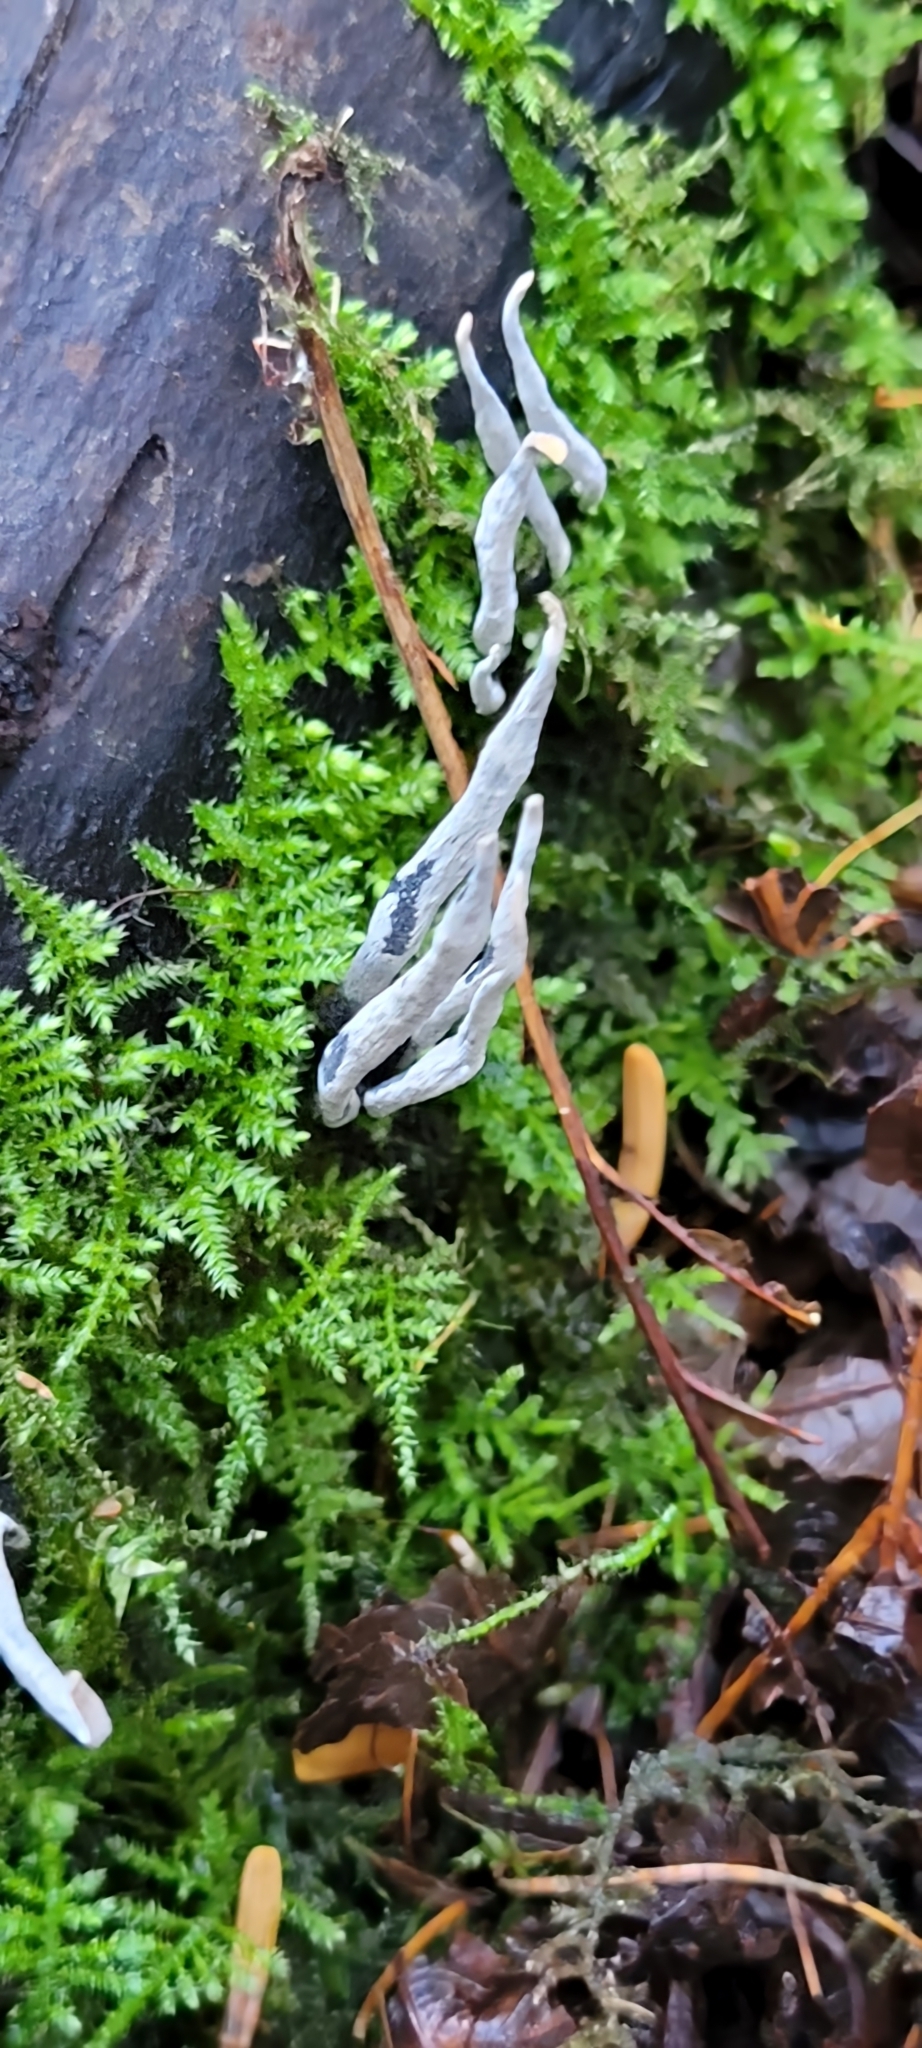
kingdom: Fungi
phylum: Ascomycota
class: Sordariomycetes
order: Xylariales
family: Xylariaceae
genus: Xylaria
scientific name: Xylaria hypoxylon
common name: Candle-snuff fungus
